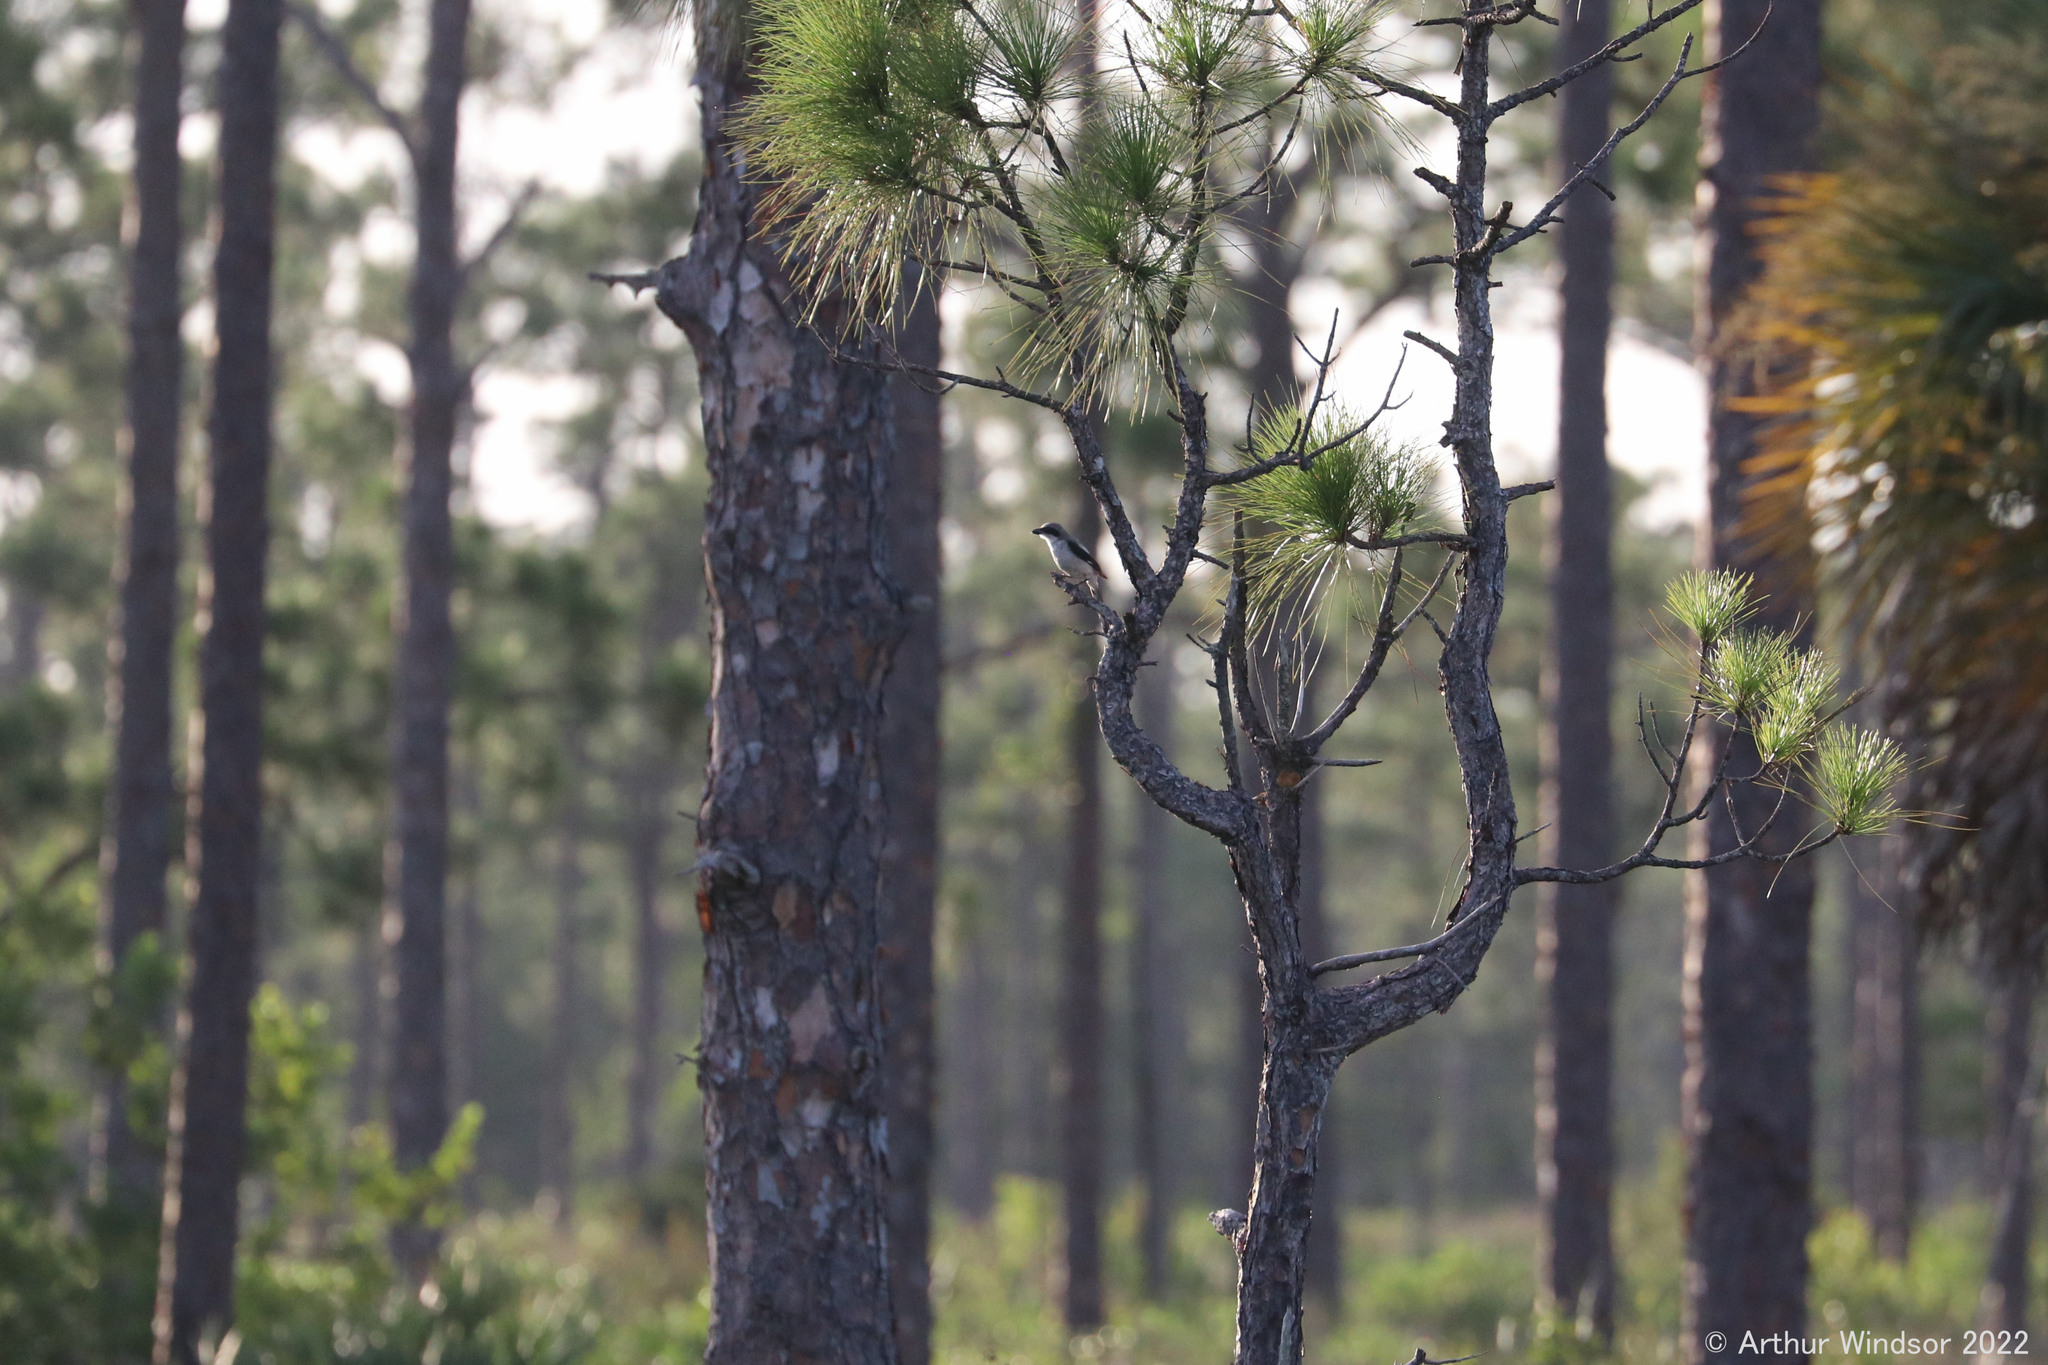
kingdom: Animalia
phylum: Chordata
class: Aves
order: Passeriformes
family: Laniidae
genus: Lanius
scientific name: Lanius ludovicianus
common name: Loggerhead shrike
